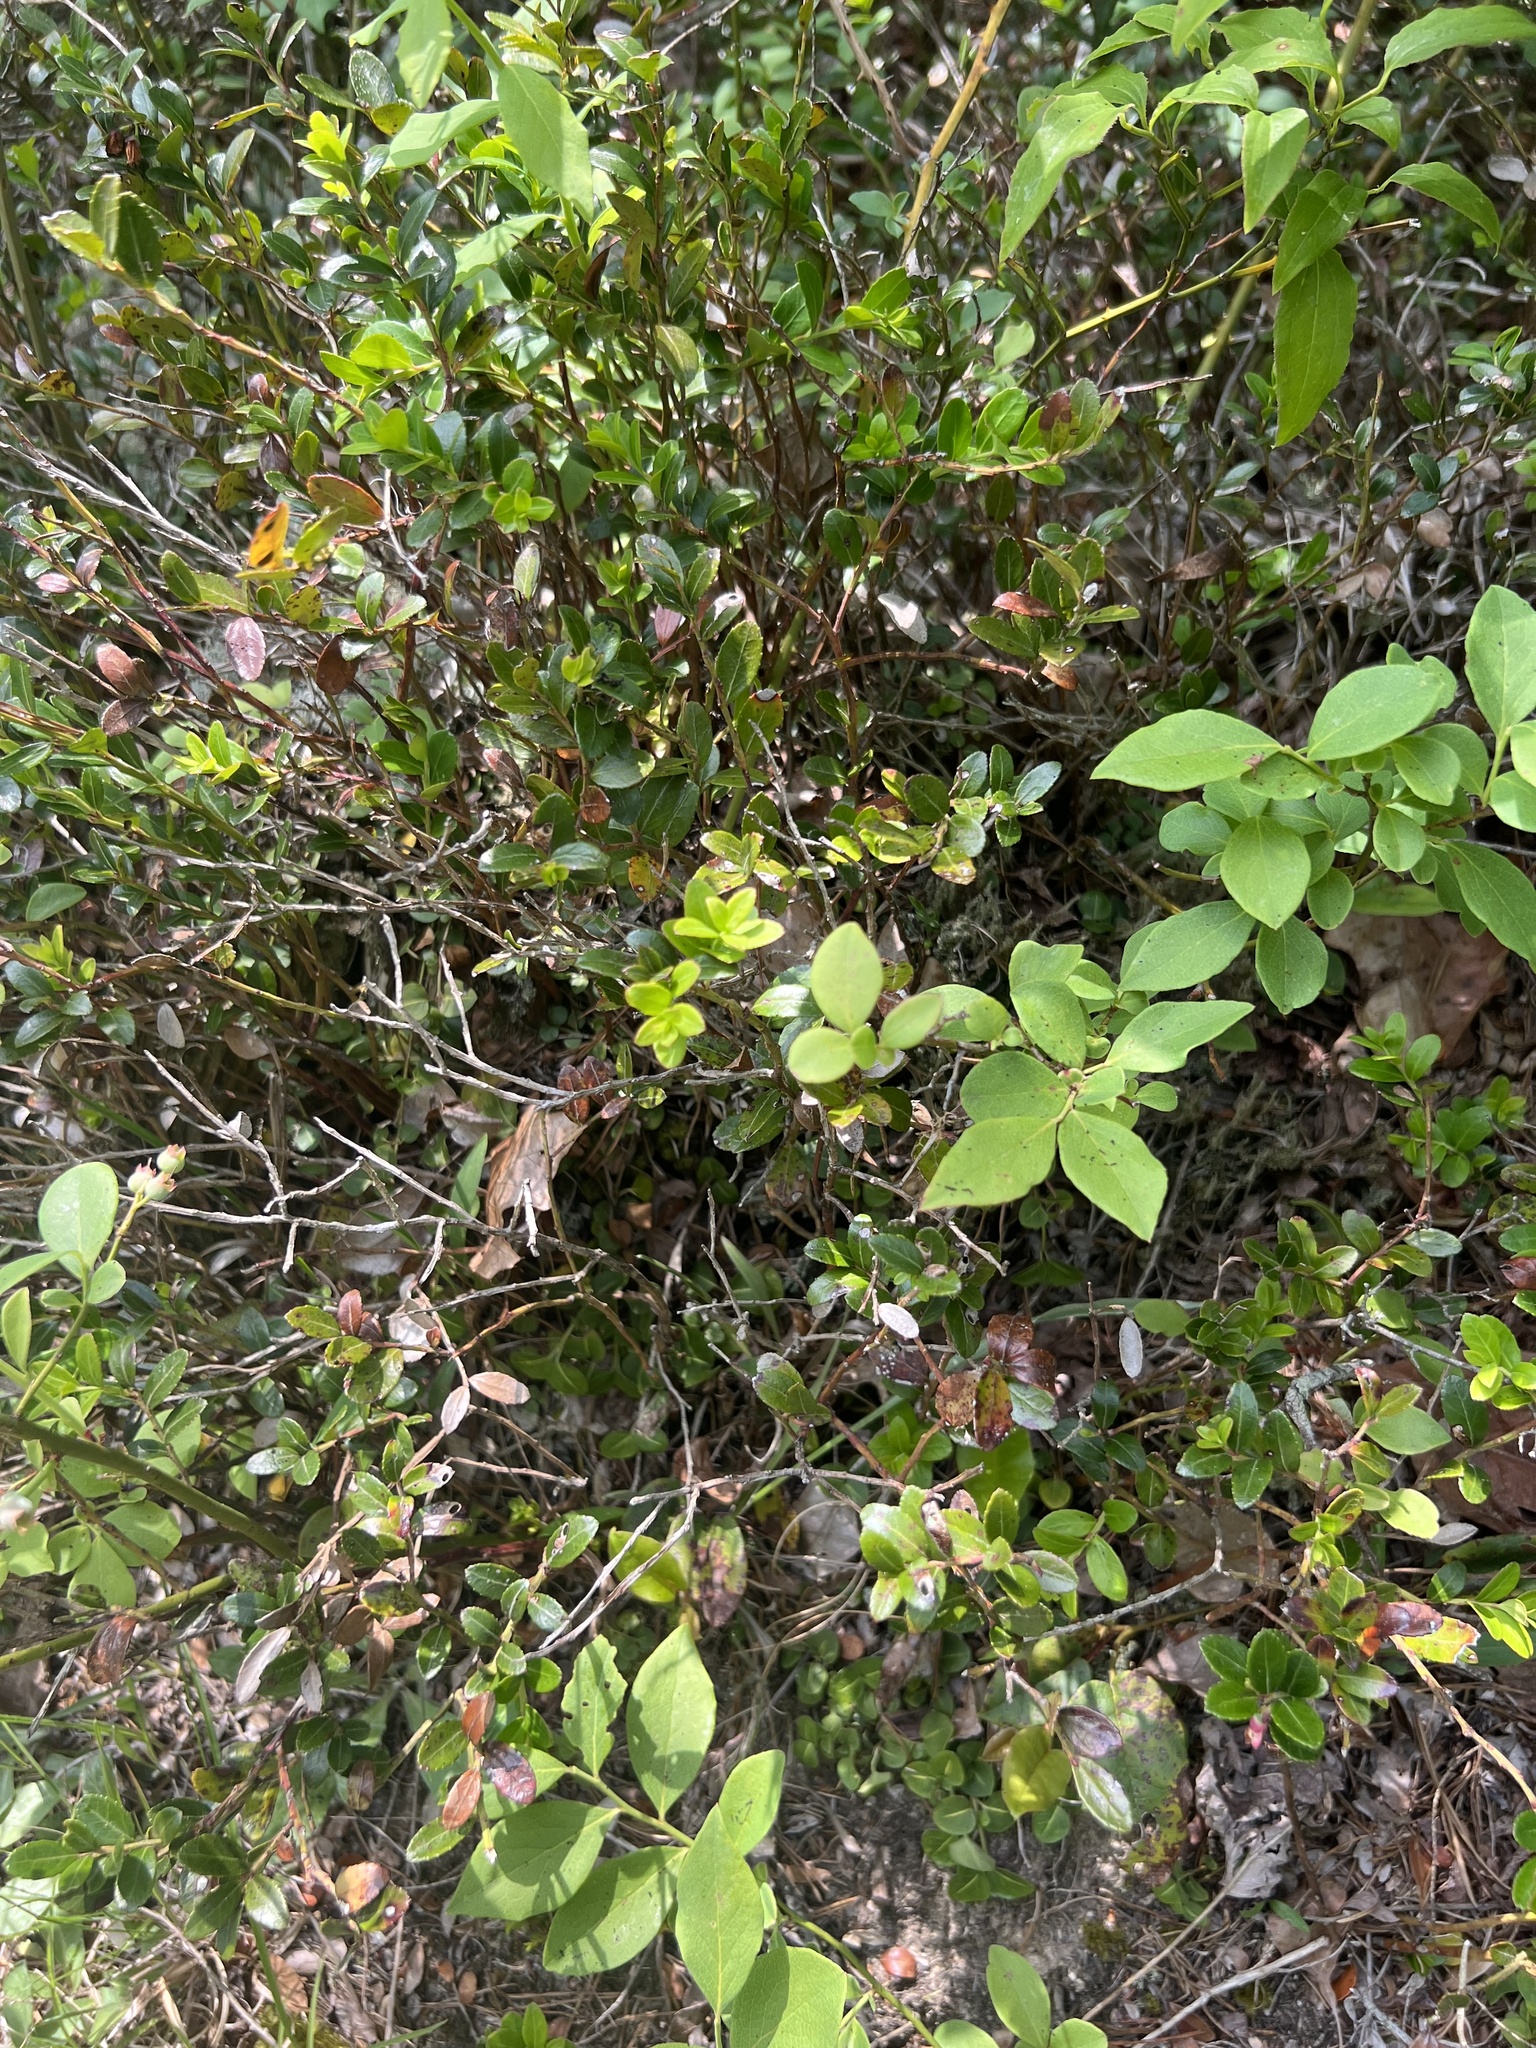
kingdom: Plantae
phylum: Tracheophyta
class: Magnoliopsida
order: Ericales
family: Ericaceae
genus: Gaylussacia
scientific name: Gaylussacia brachycera
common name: Box huckleberry
